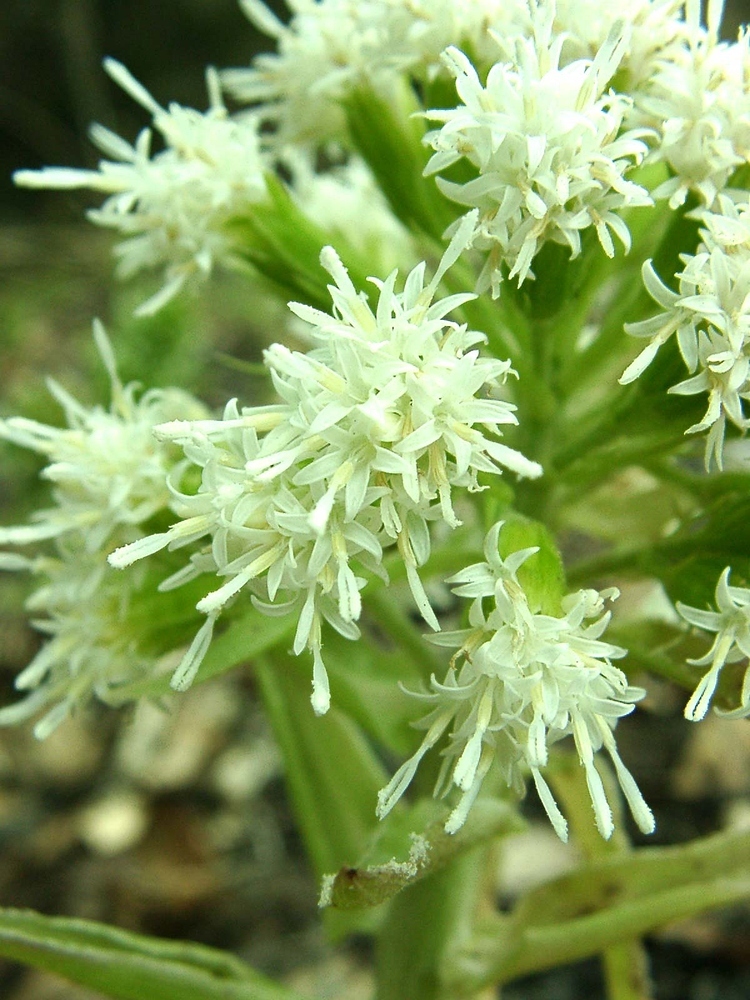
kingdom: Plantae
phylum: Tracheophyta
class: Magnoliopsida
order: Asterales
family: Asteraceae
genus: Petasites
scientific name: Petasites albus
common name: White butterbur
